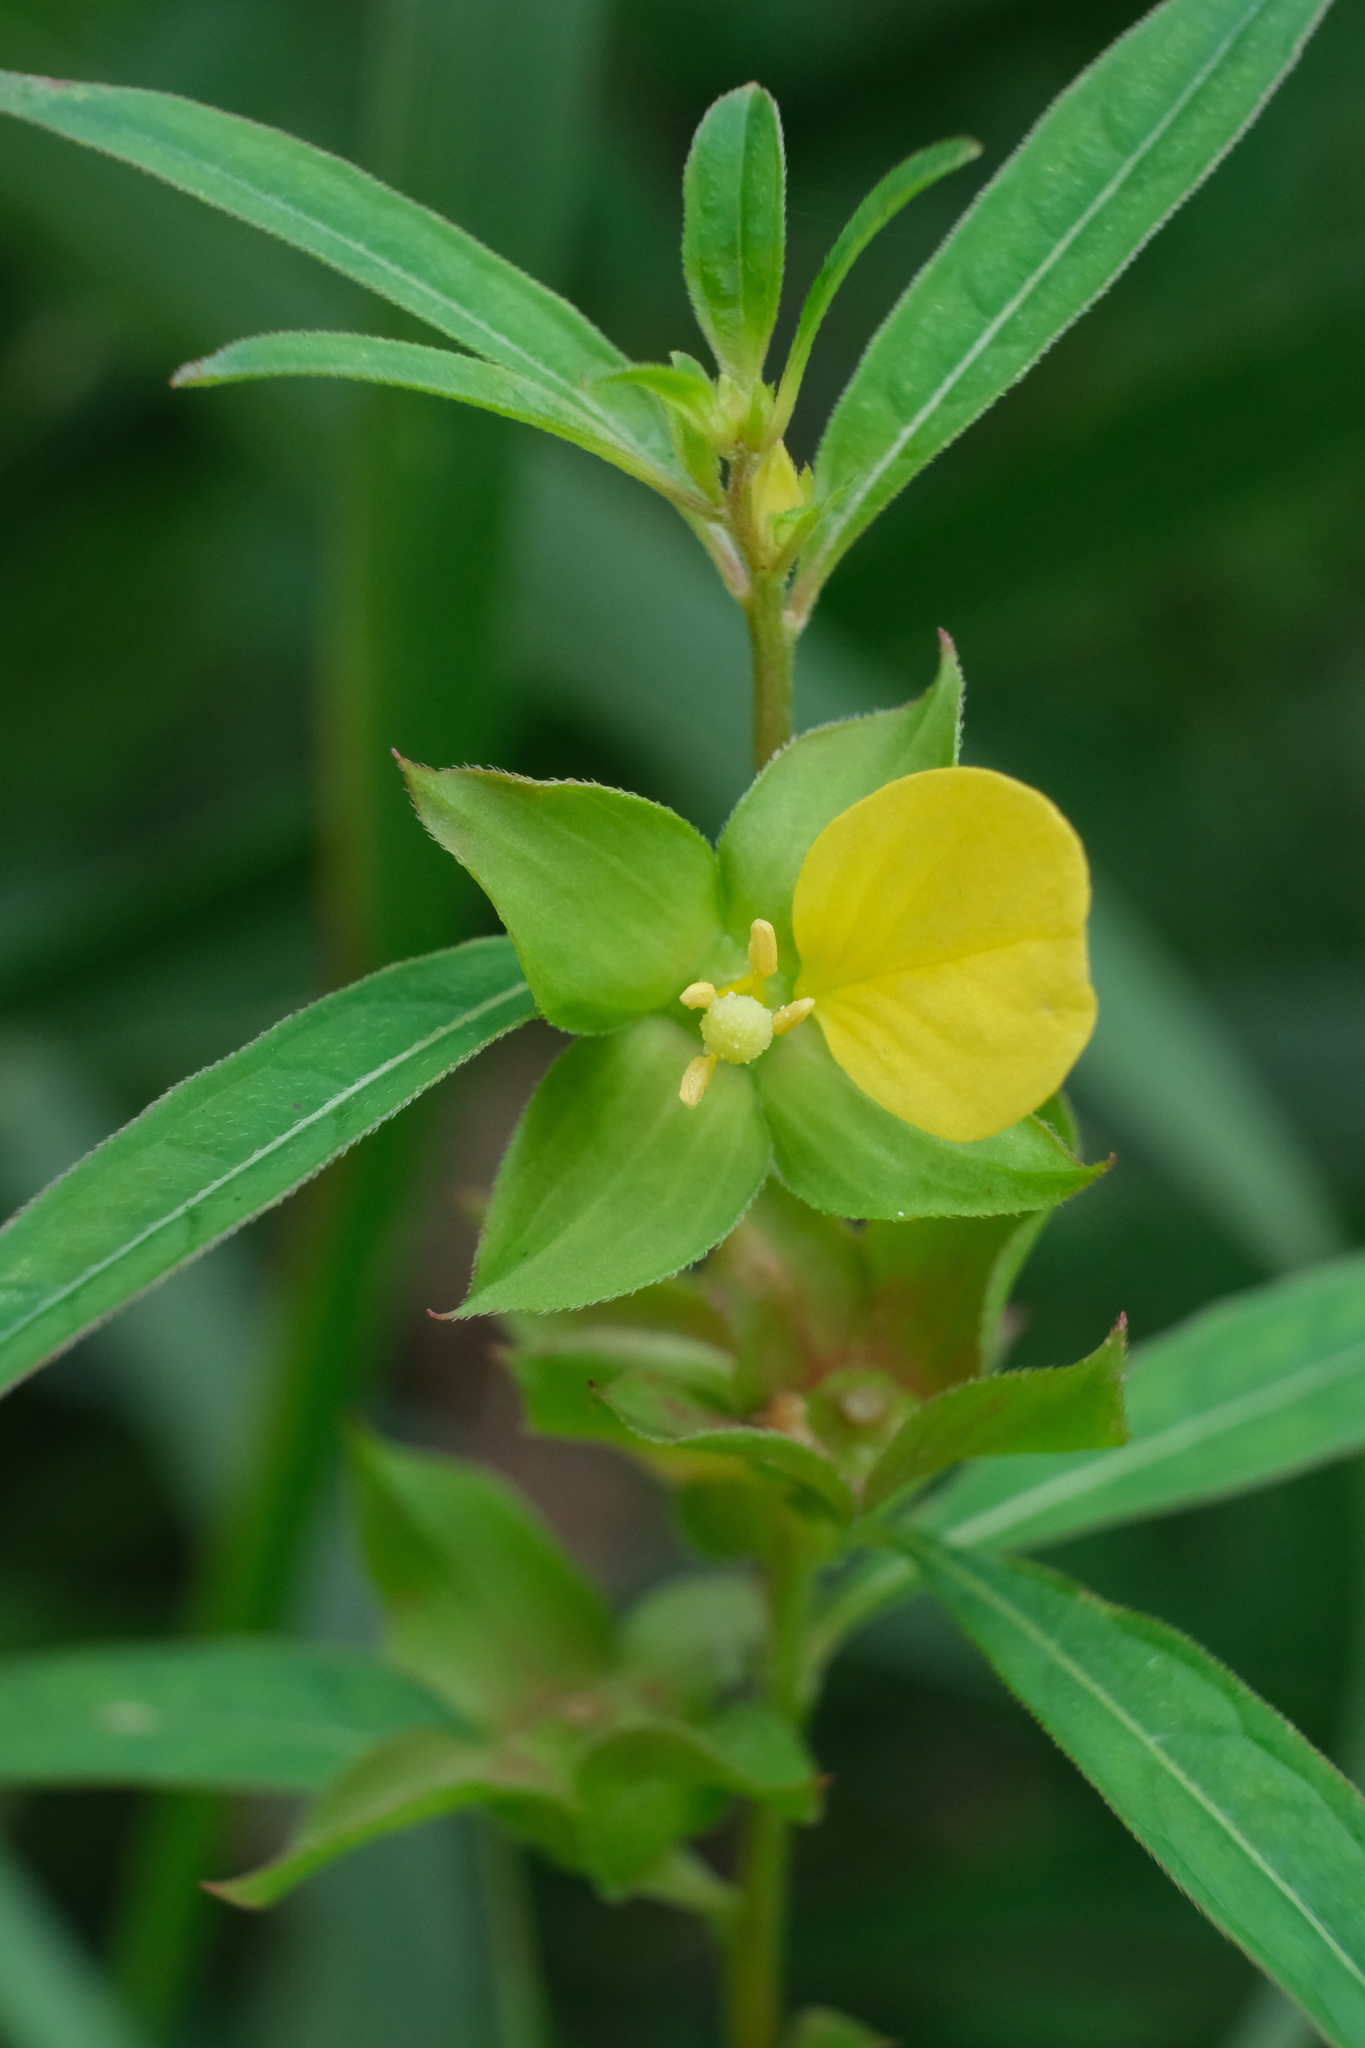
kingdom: Plantae
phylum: Tracheophyta
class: Magnoliopsida
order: Myrtales
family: Onagraceae
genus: Ludwigia
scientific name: Ludwigia alternifolia
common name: Rattlebox
